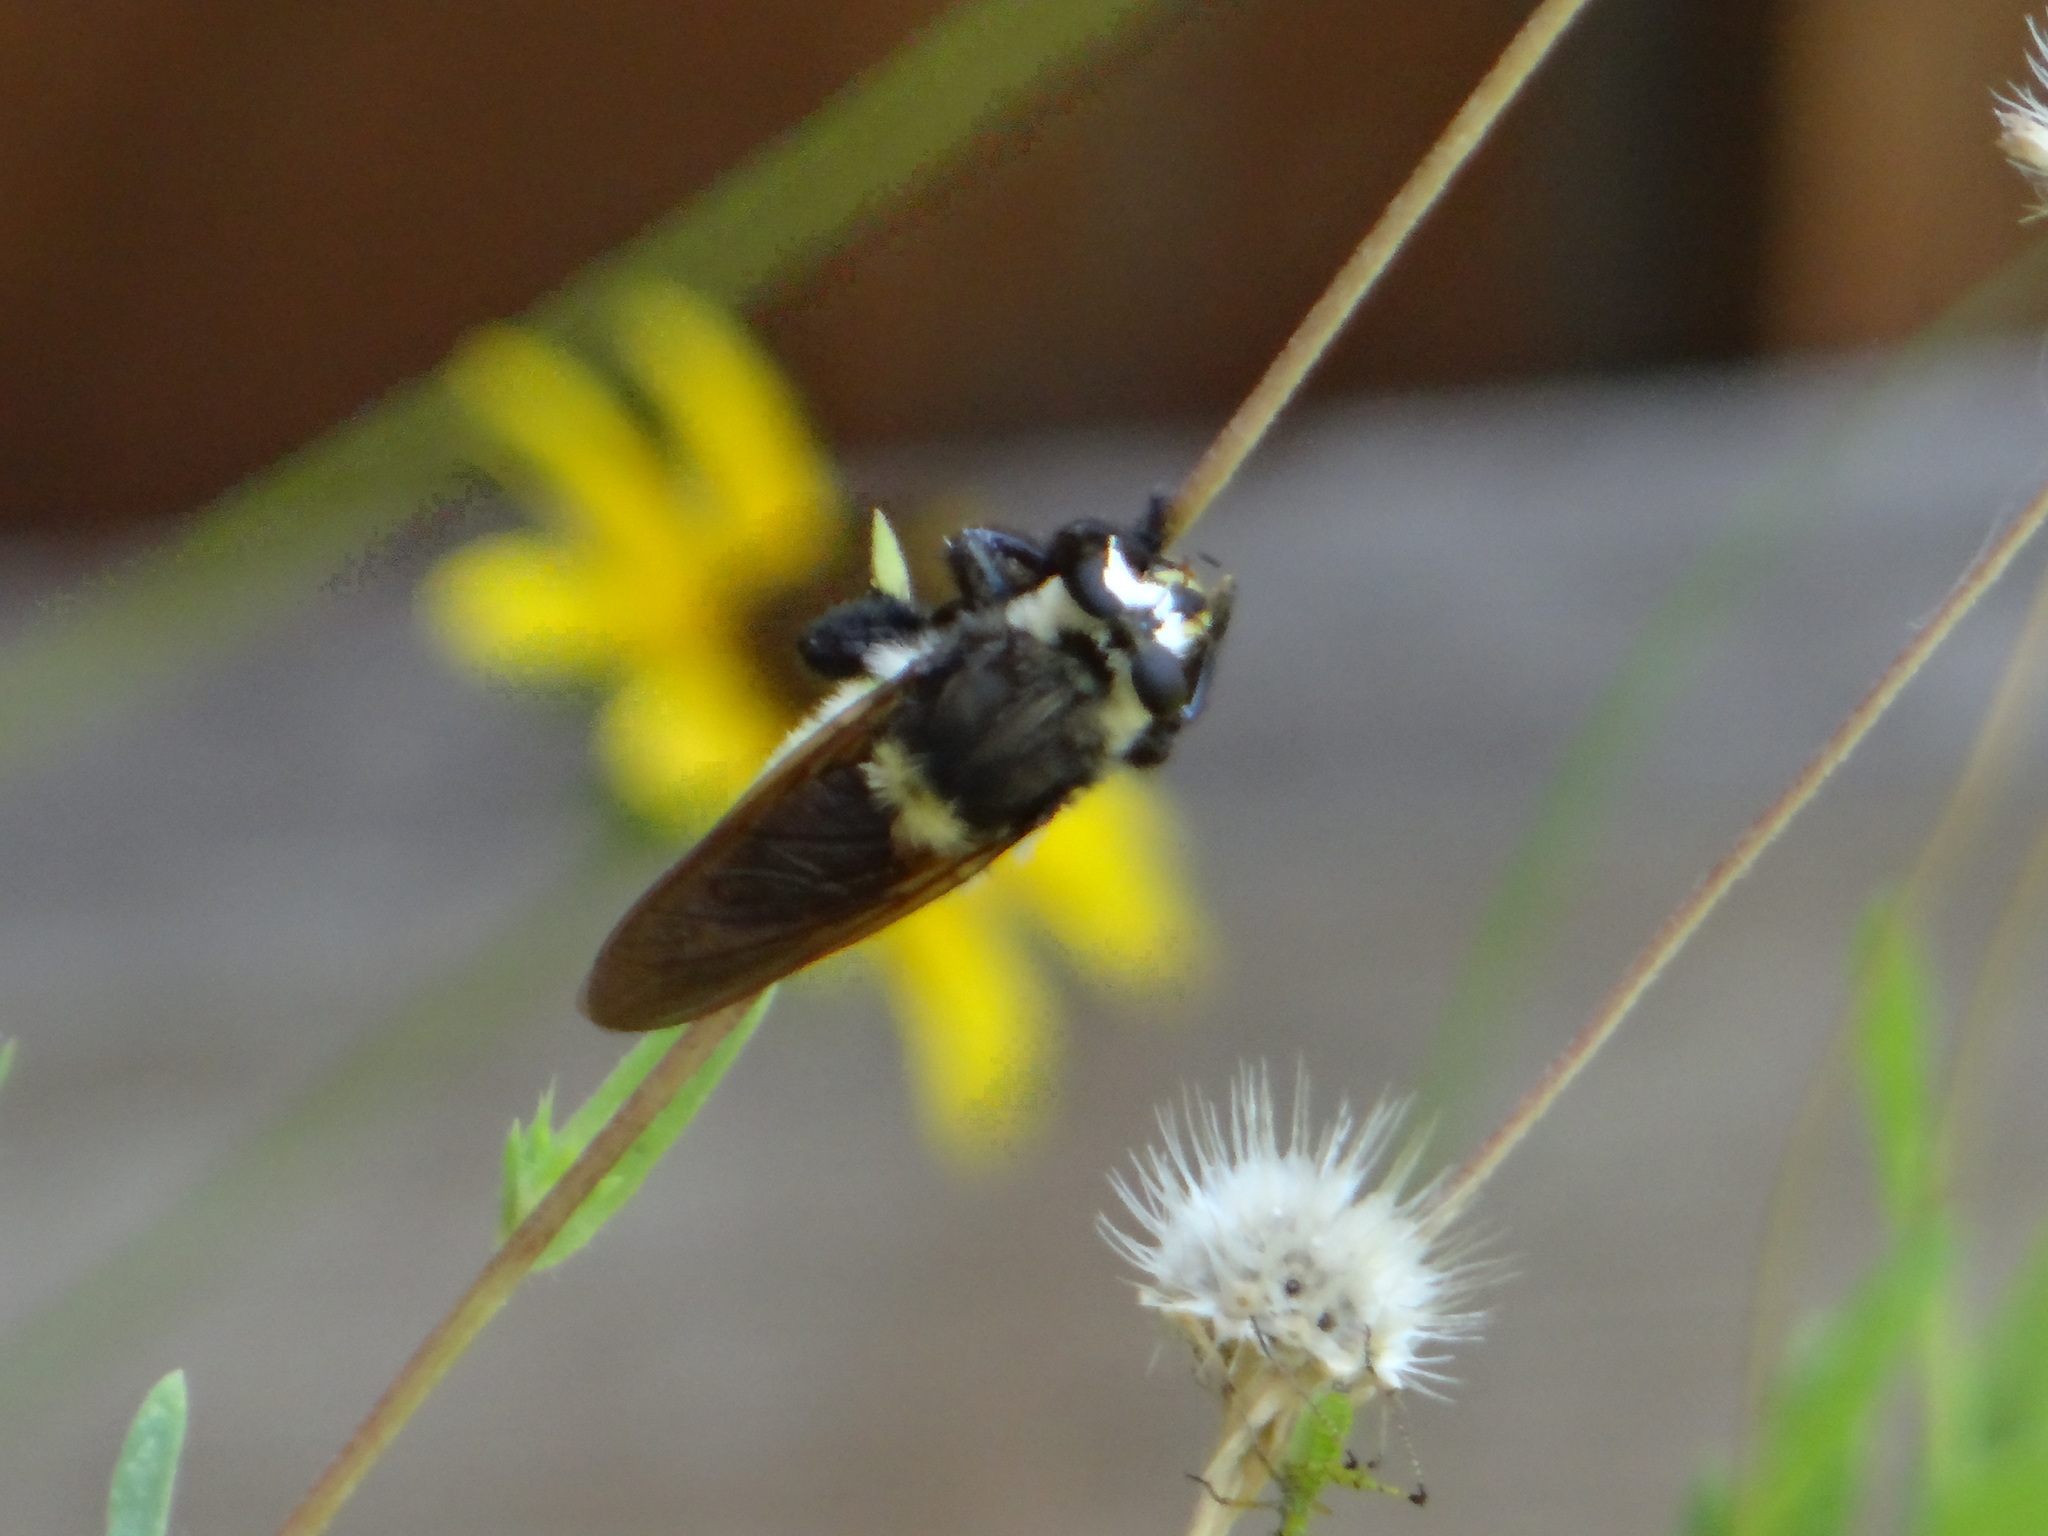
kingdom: Animalia
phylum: Arthropoda
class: Insecta
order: Diptera
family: Asilidae
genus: Mallophora
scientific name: Mallophora fautrix
